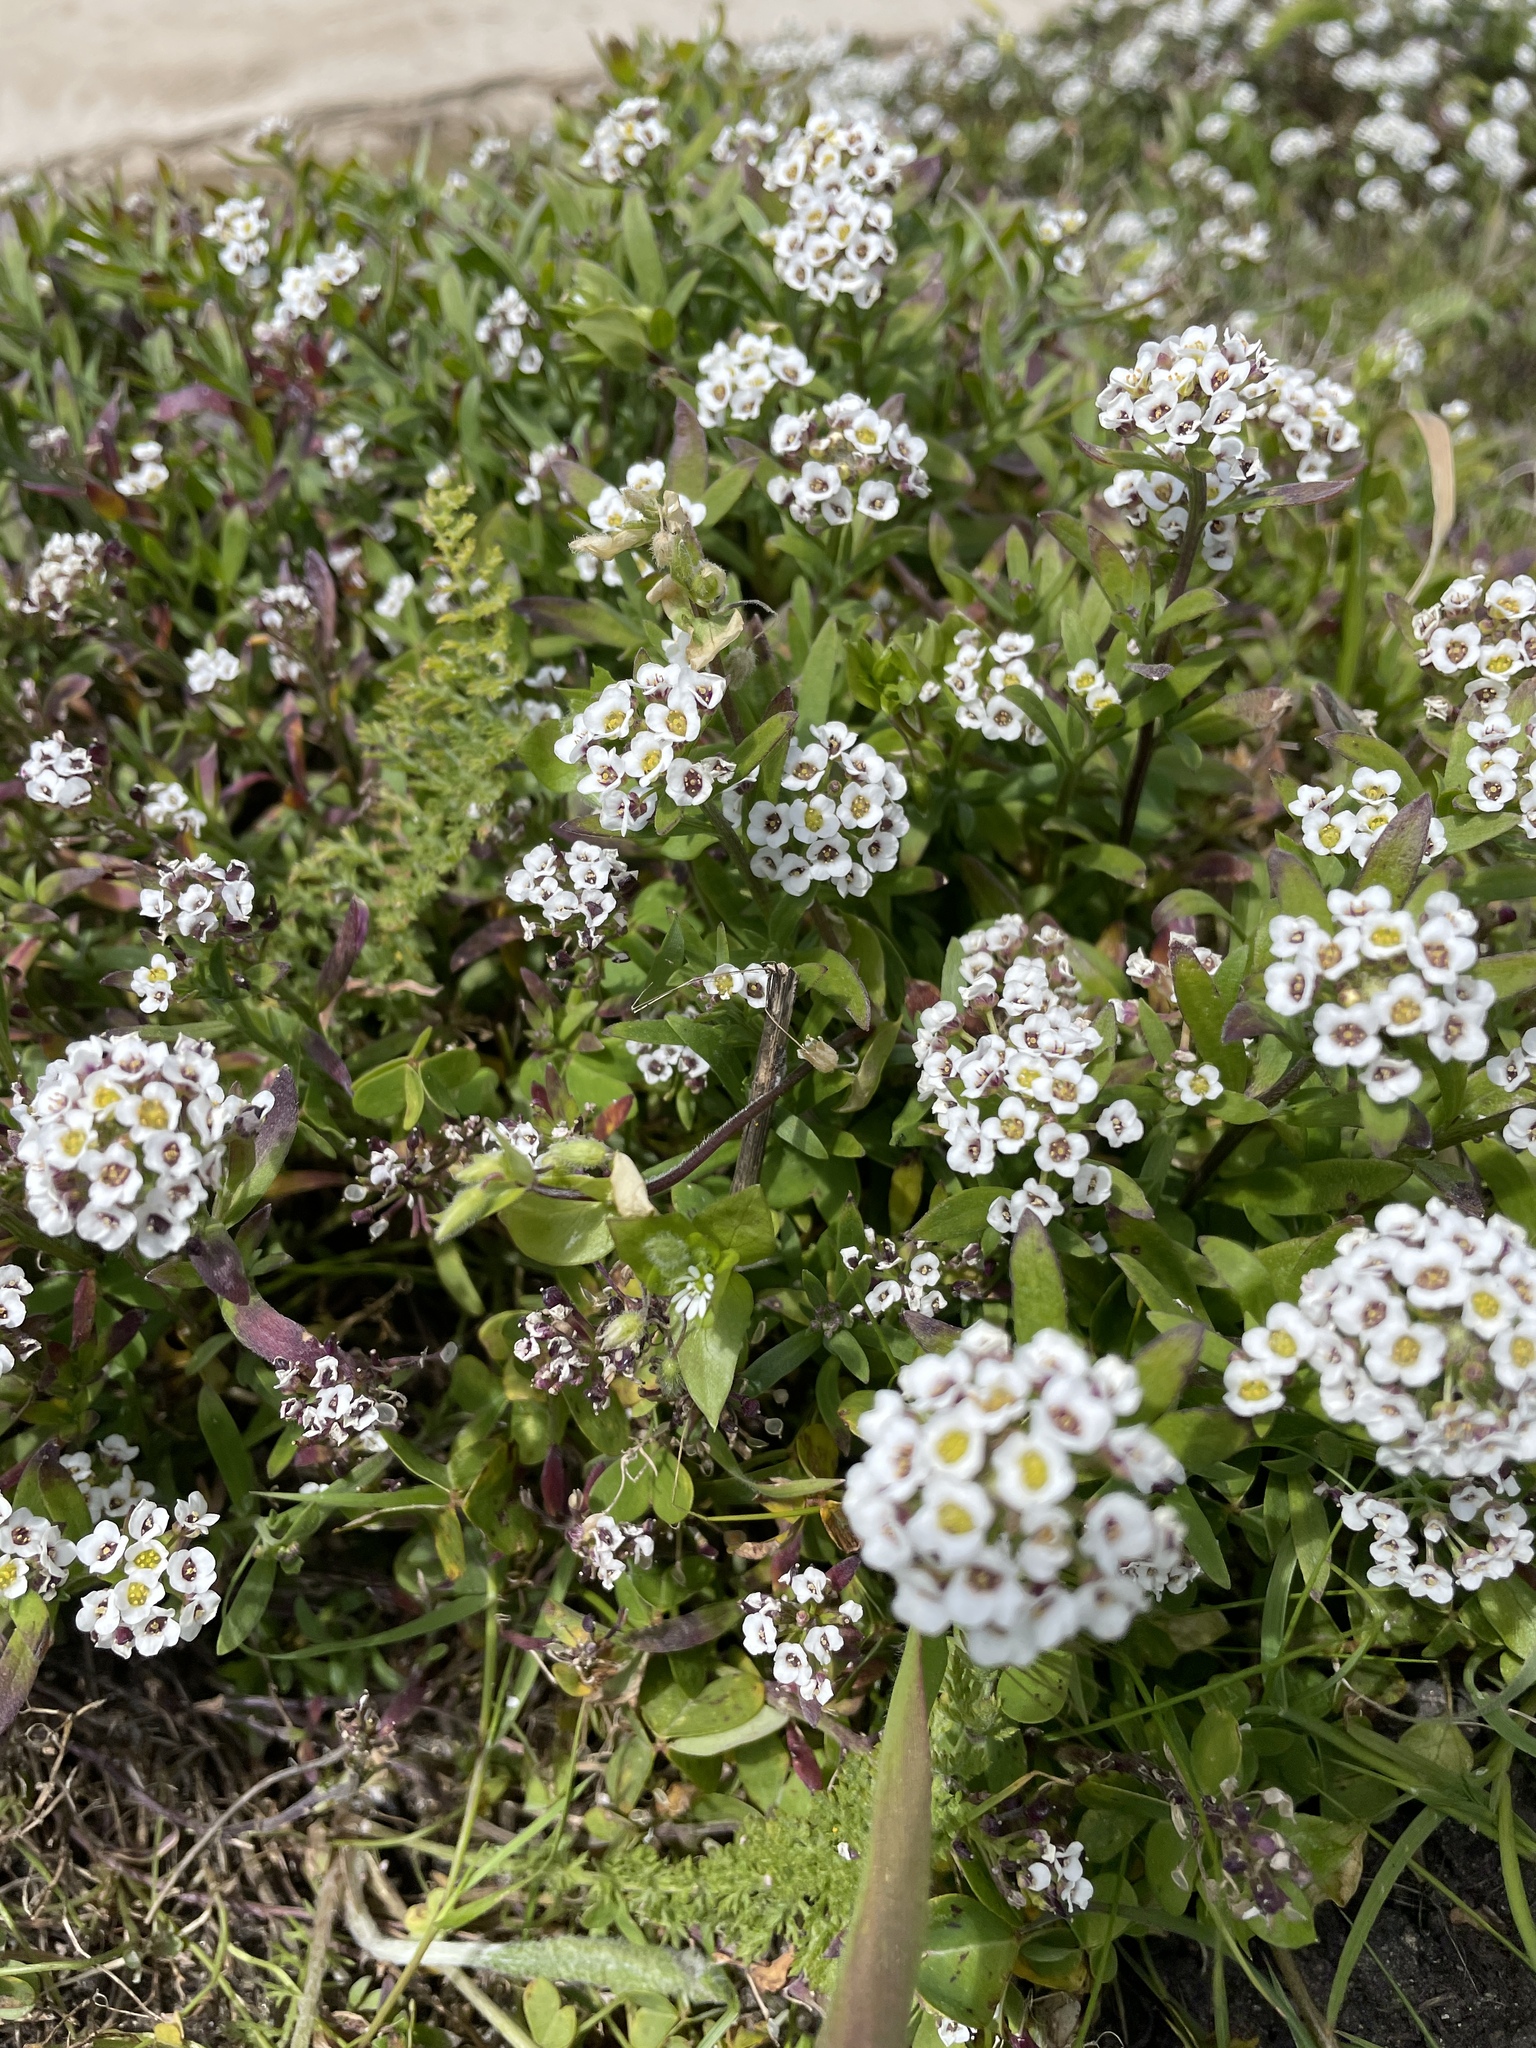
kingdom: Plantae
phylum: Tracheophyta
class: Magnoliopsida
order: Brassicales
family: Brassicaceae
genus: Lobularia
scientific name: Lobularia maritima
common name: Sweet alison
